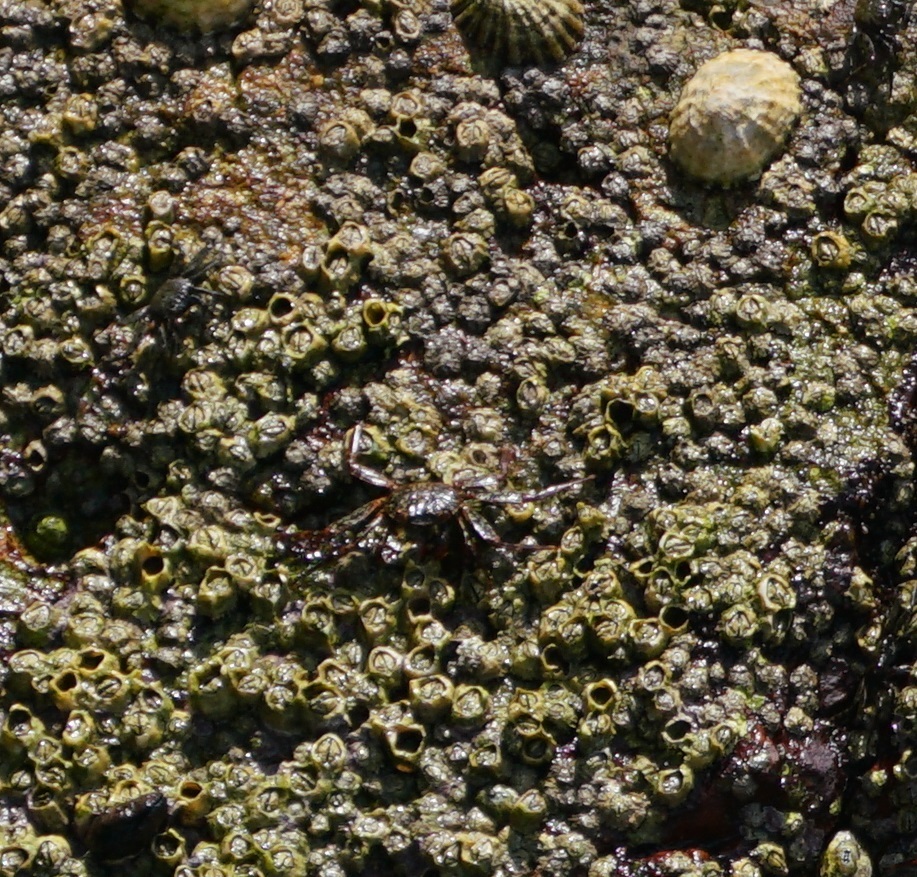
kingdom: Animalia
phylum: Arthropoda
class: Malacostraca
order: Decapoda
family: Grapsidae
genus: Grapsus
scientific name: Grapsus grapsus
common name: Sally lightfoot
